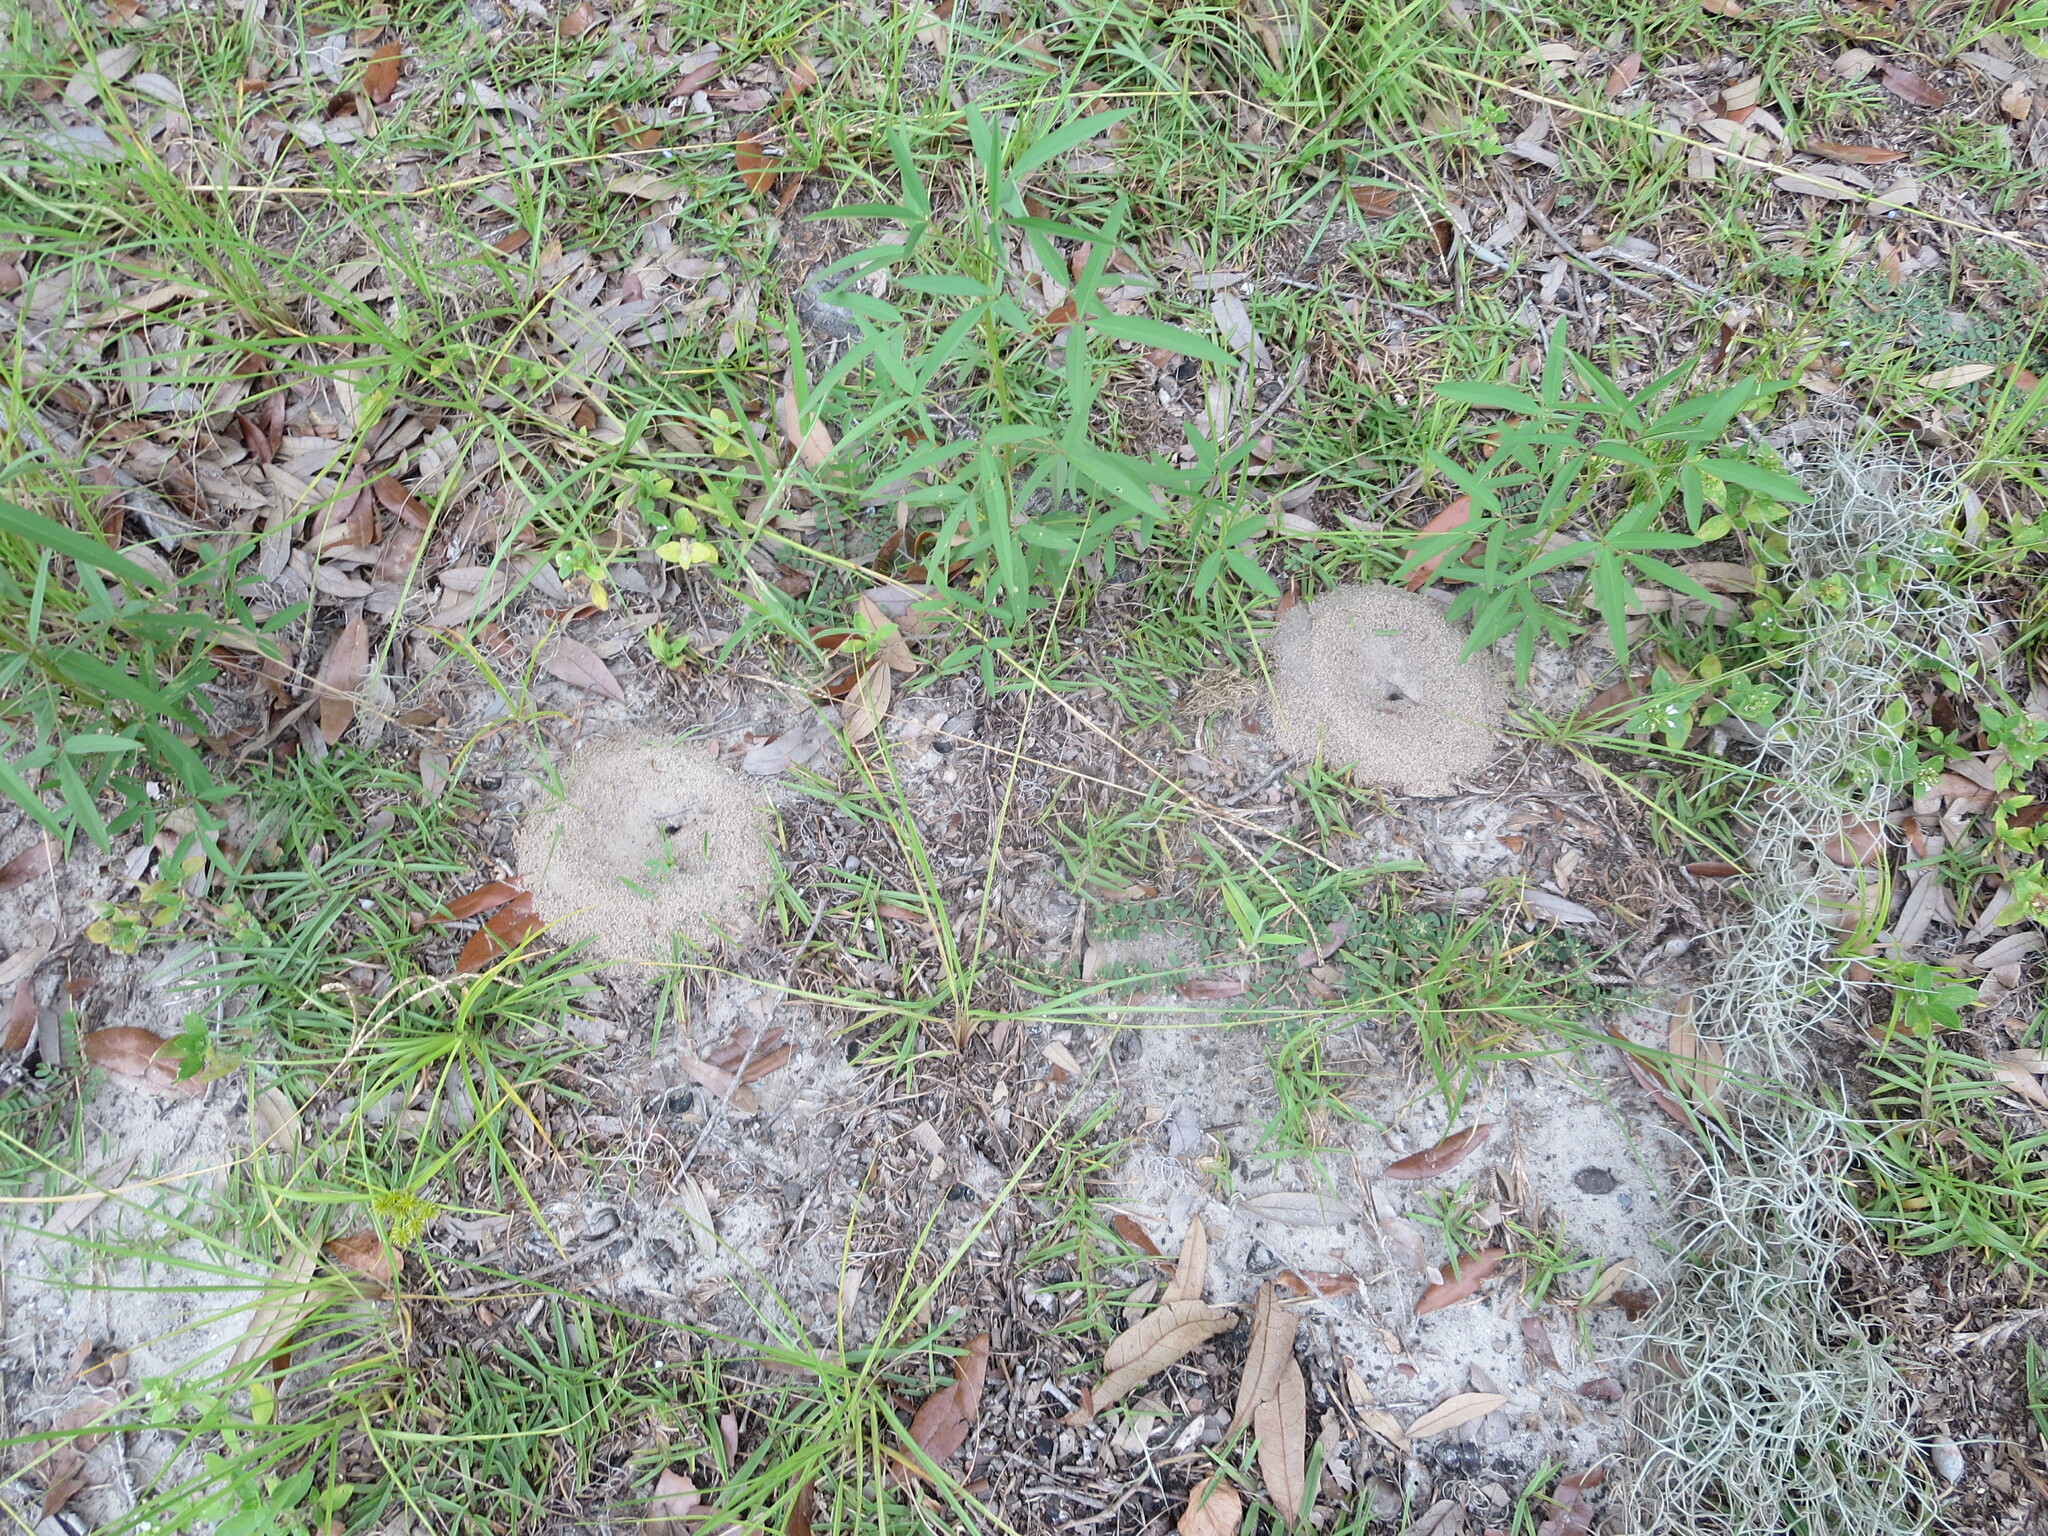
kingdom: Animalia
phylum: Arthropoda
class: Insecta
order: Hymenoptera
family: Formicidae
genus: Dorymyrmex
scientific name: Dorymyrmex bureni
